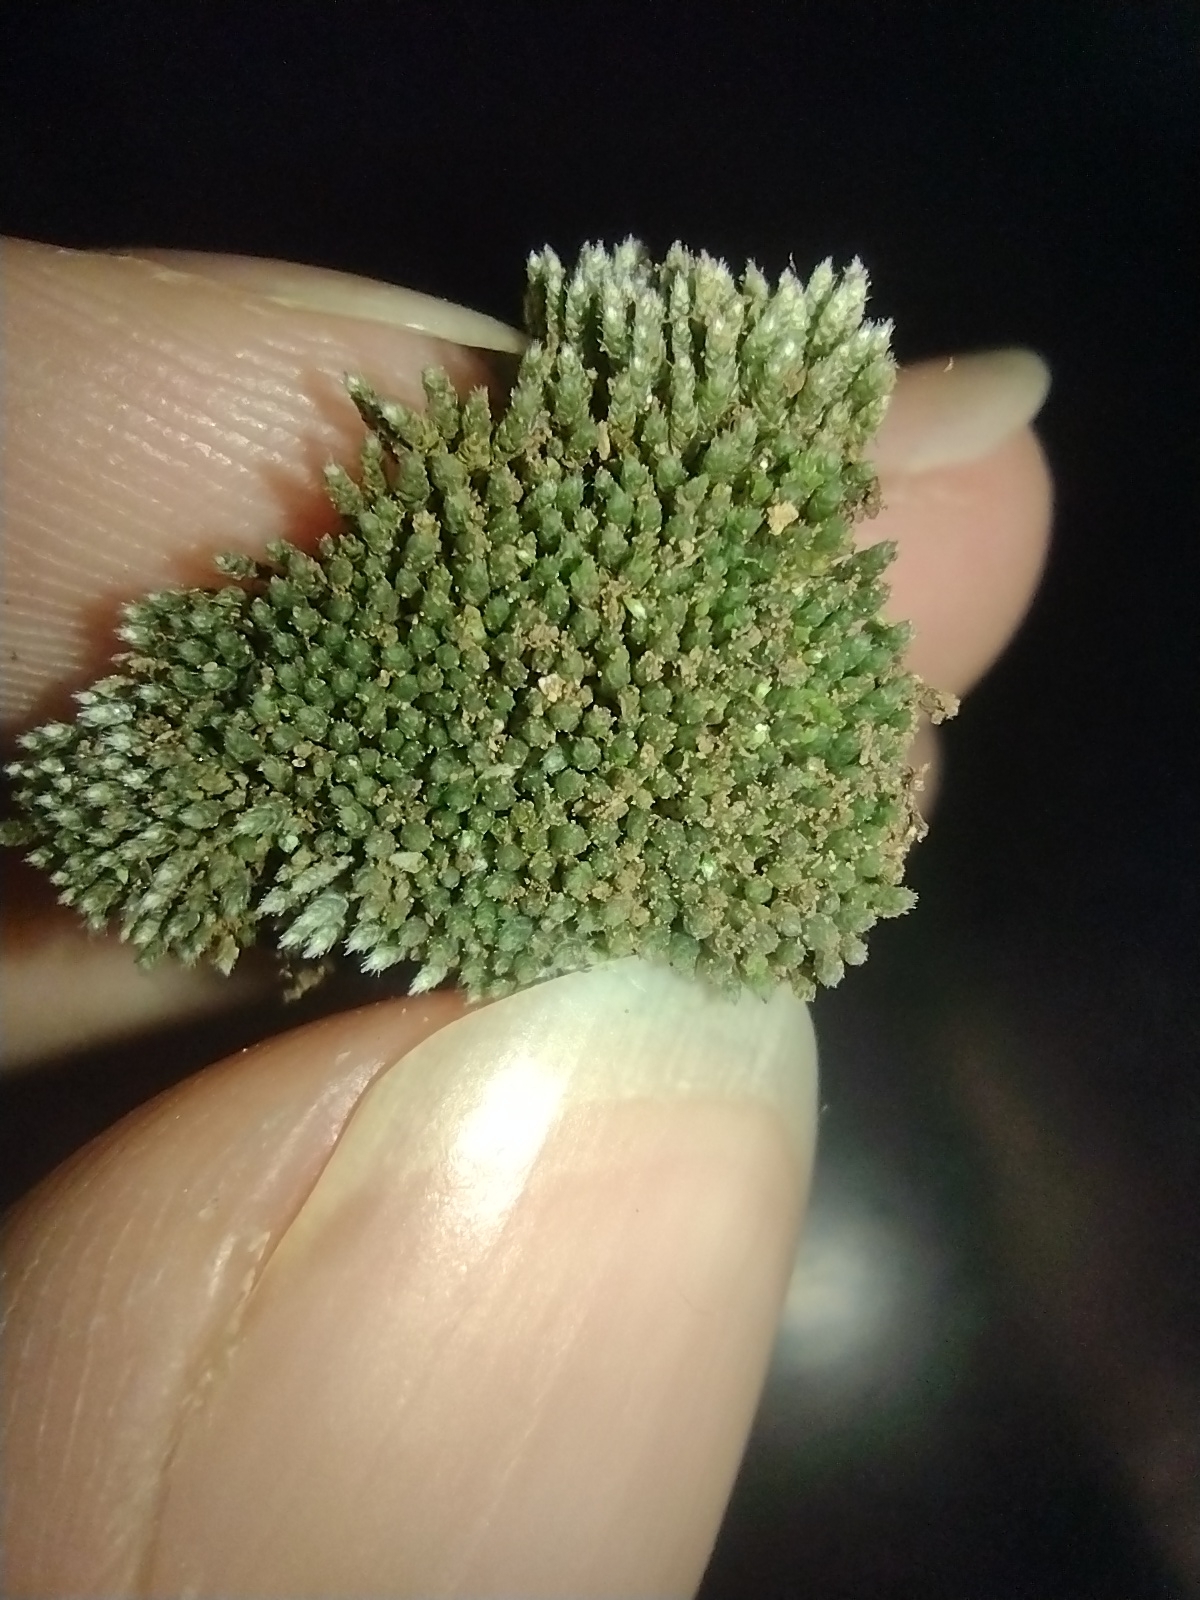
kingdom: Plantae
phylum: Bryophyta
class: Bryopsida
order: Bryales
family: Bryaceae
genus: Bryum
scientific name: Bryum argenteum
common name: Silver-moss
